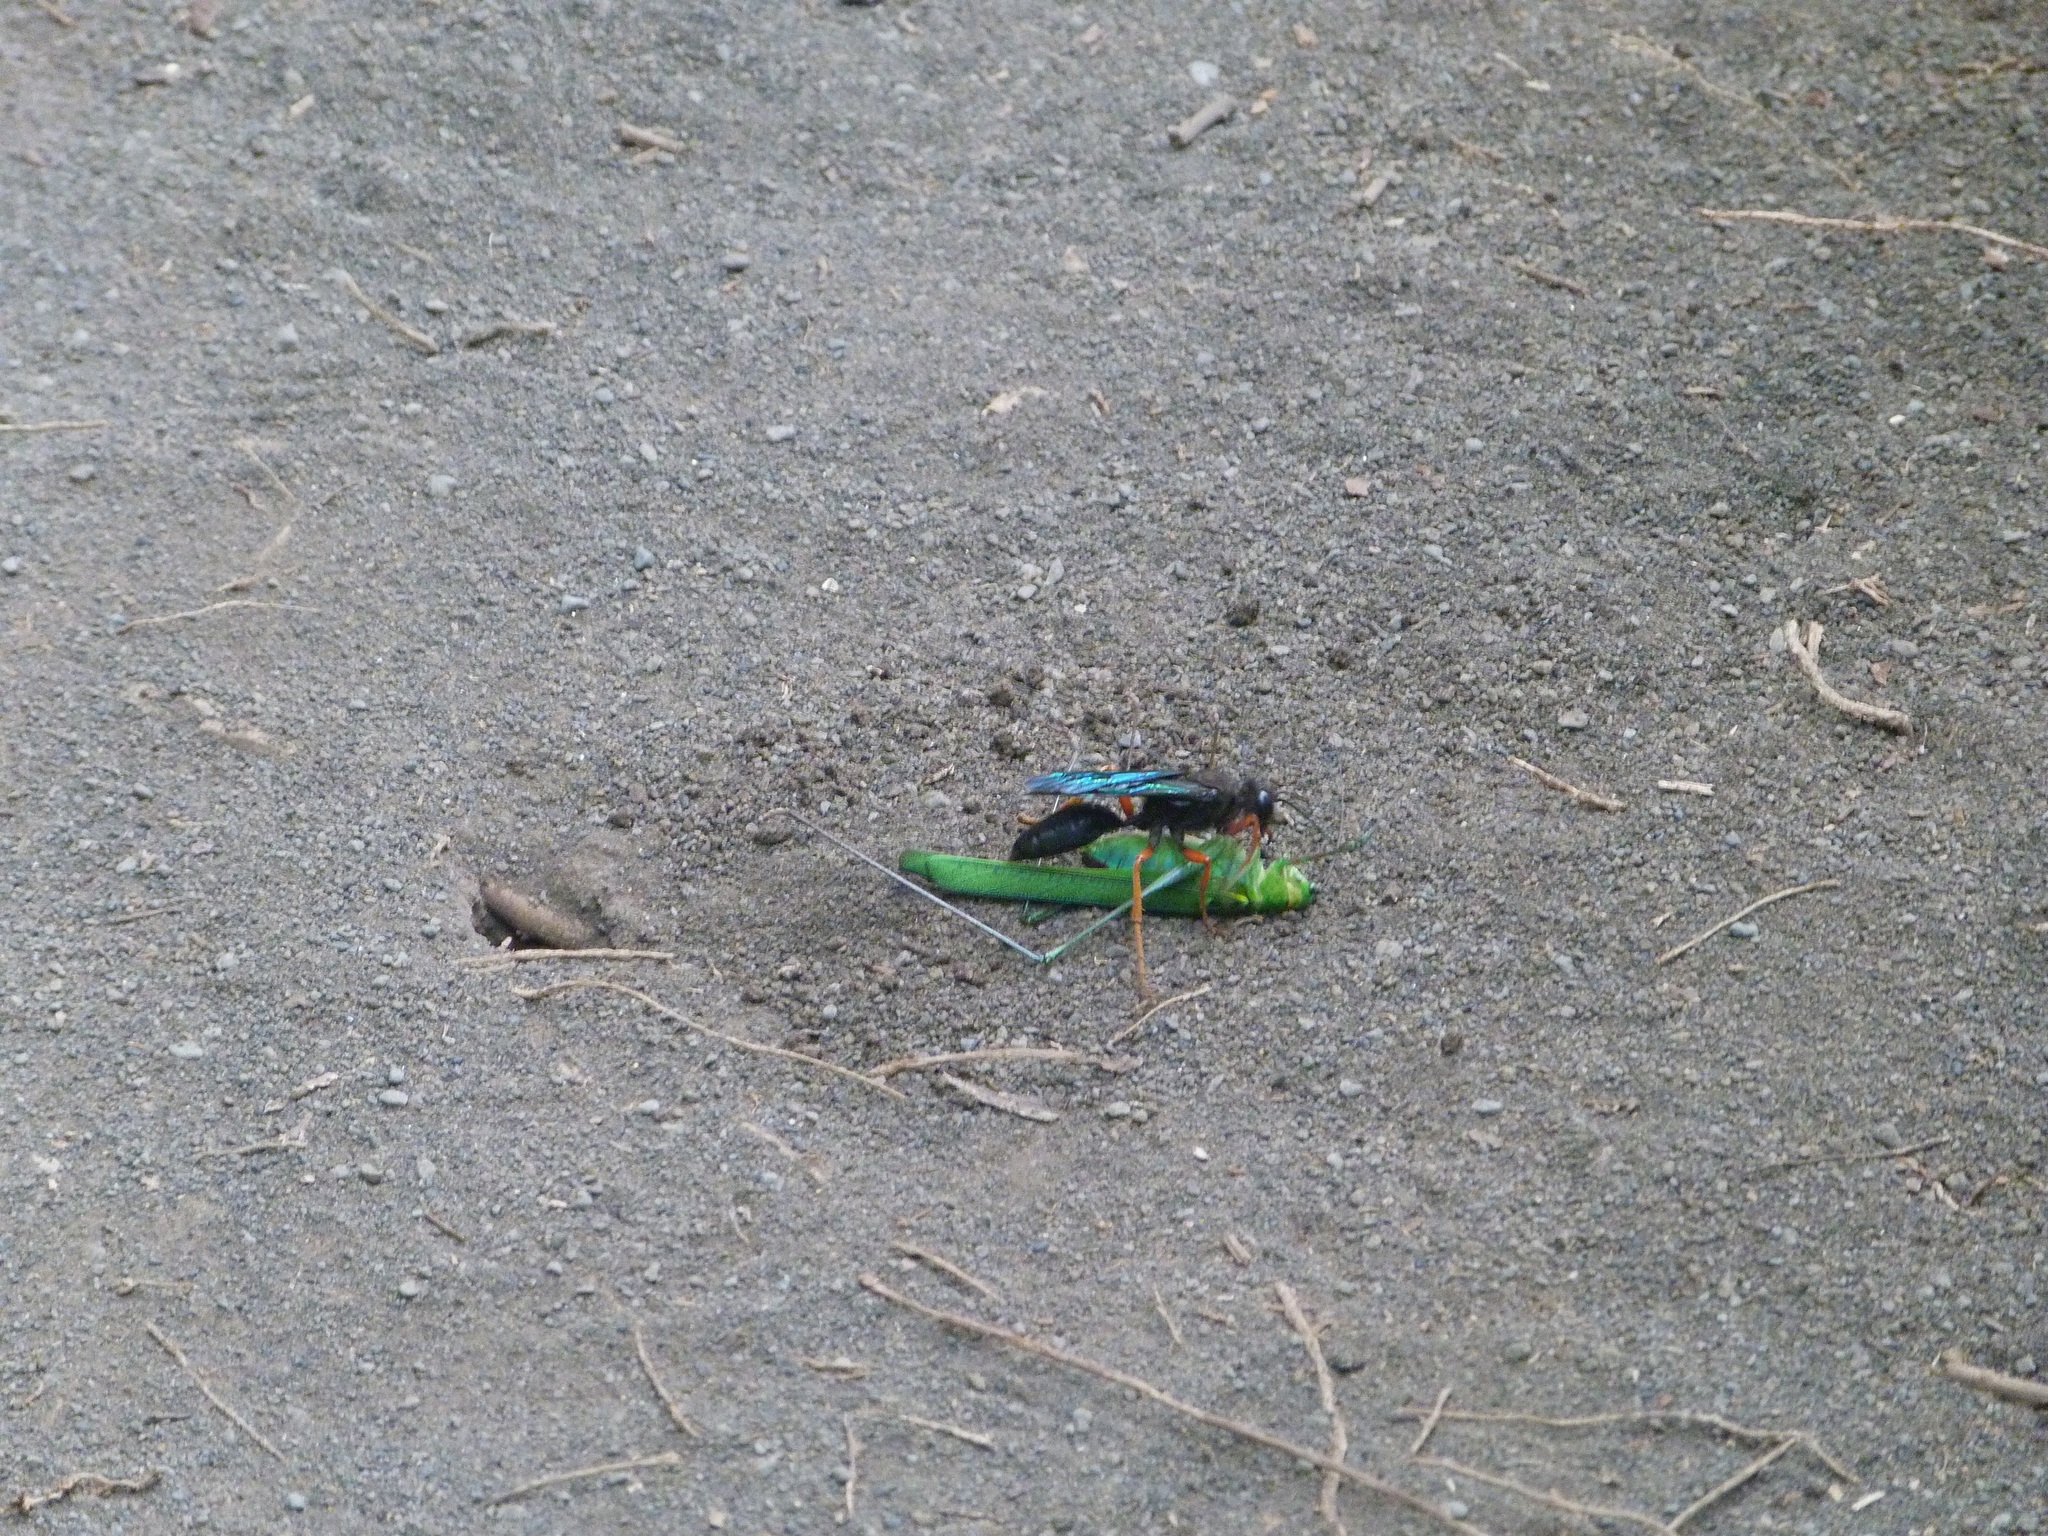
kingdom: Animalia
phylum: Arthropoda
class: Insecta
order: Hymenoptera
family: Sphecidae
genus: Sphex
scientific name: Sphex caeruleanus
